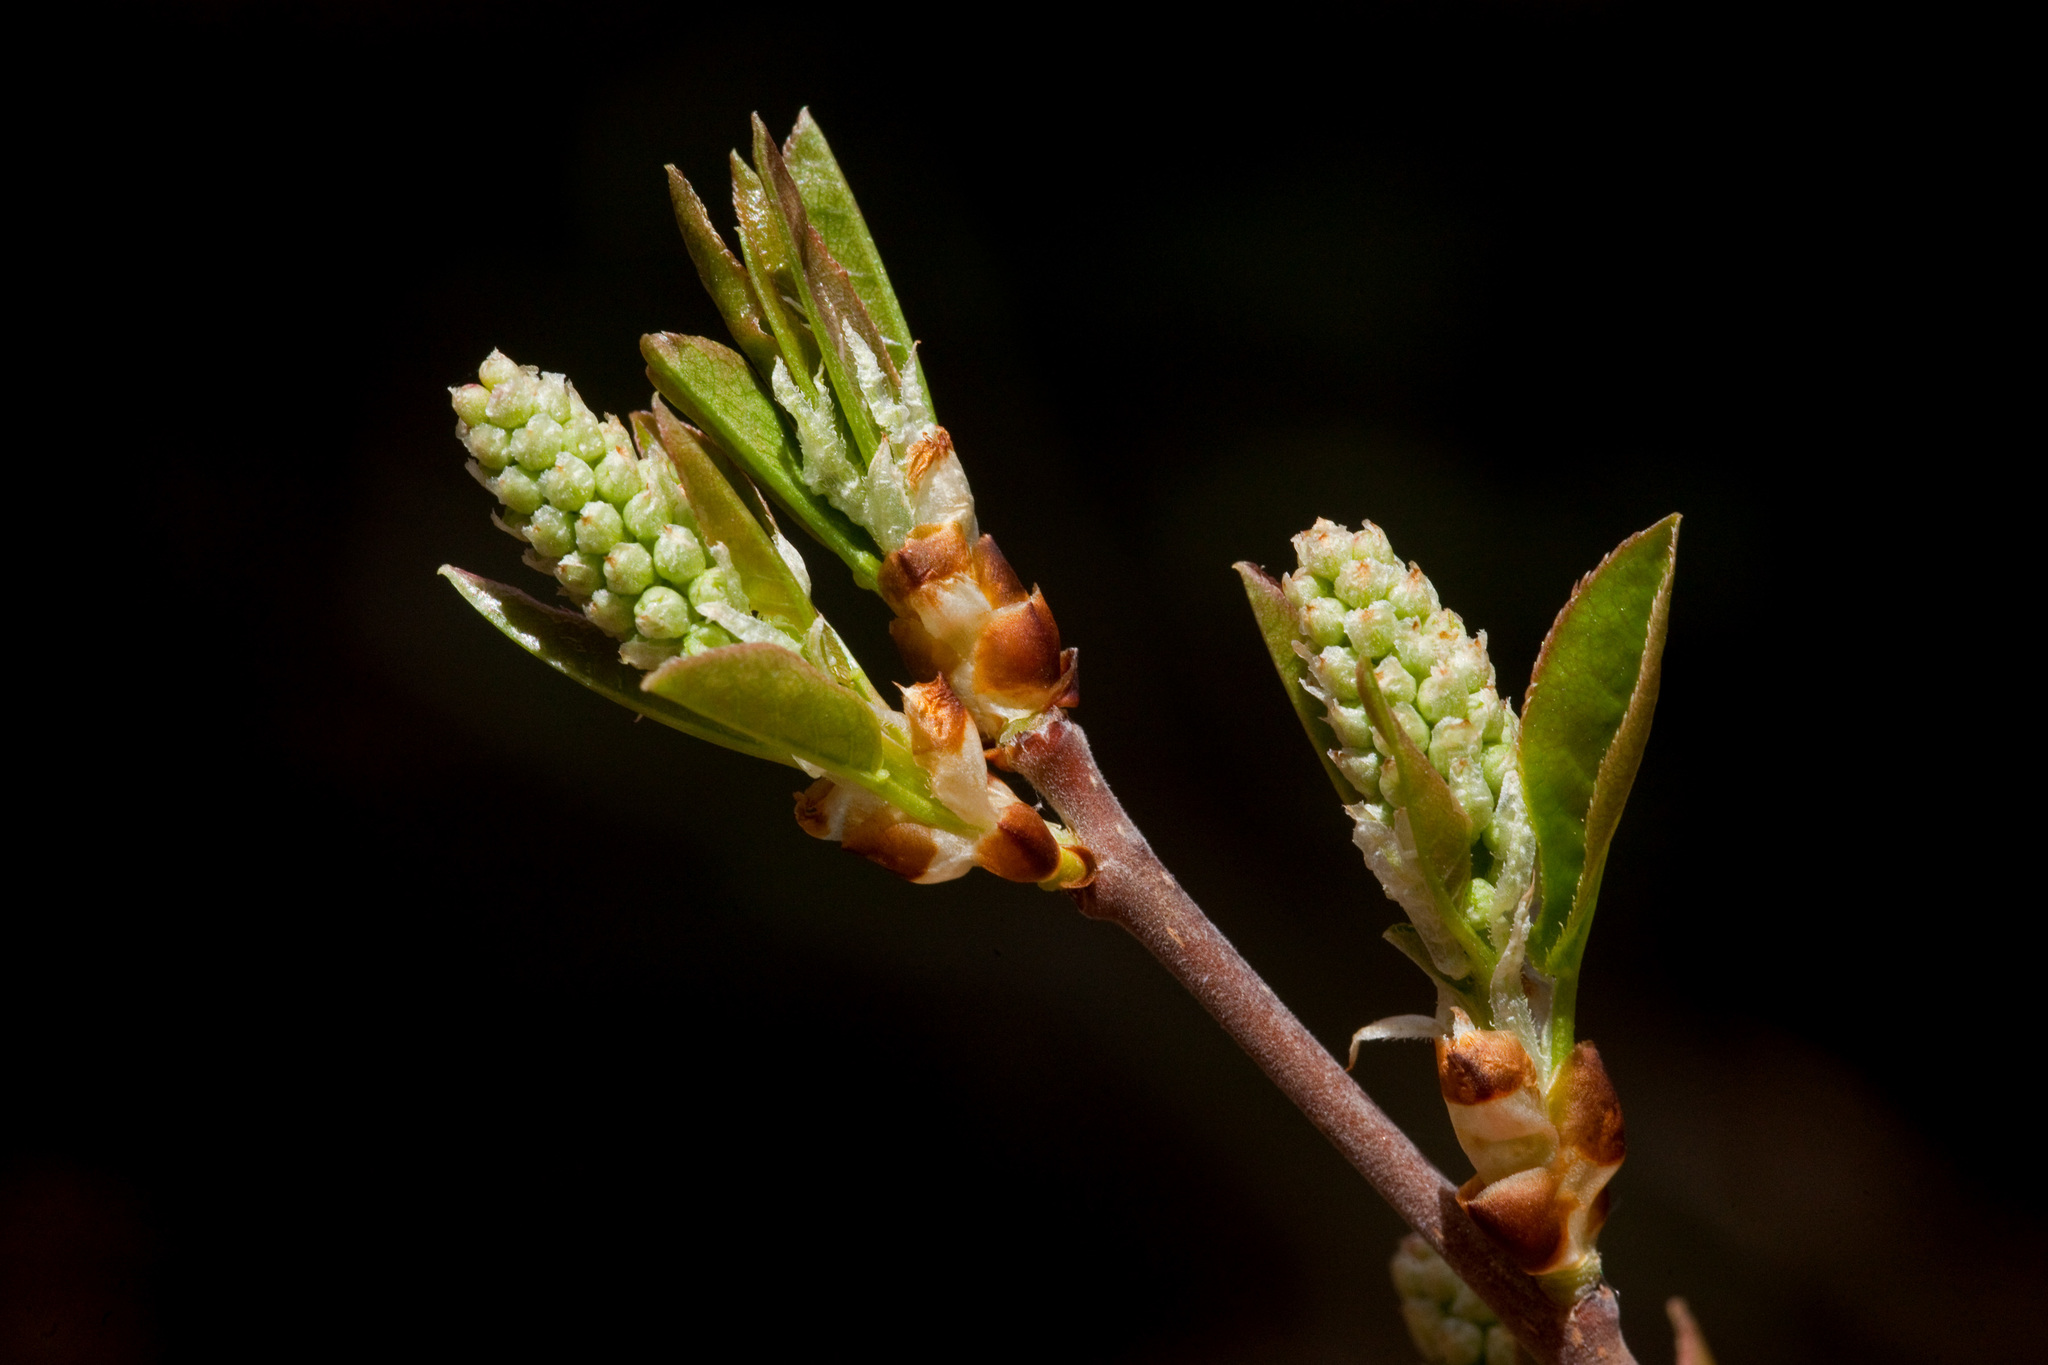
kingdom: Plantae
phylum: Tracheophyta
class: Magnoliopsida
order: Rosales
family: Rosaceae
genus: Prunus
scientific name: Prunus virginiana
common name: Chokecherry
